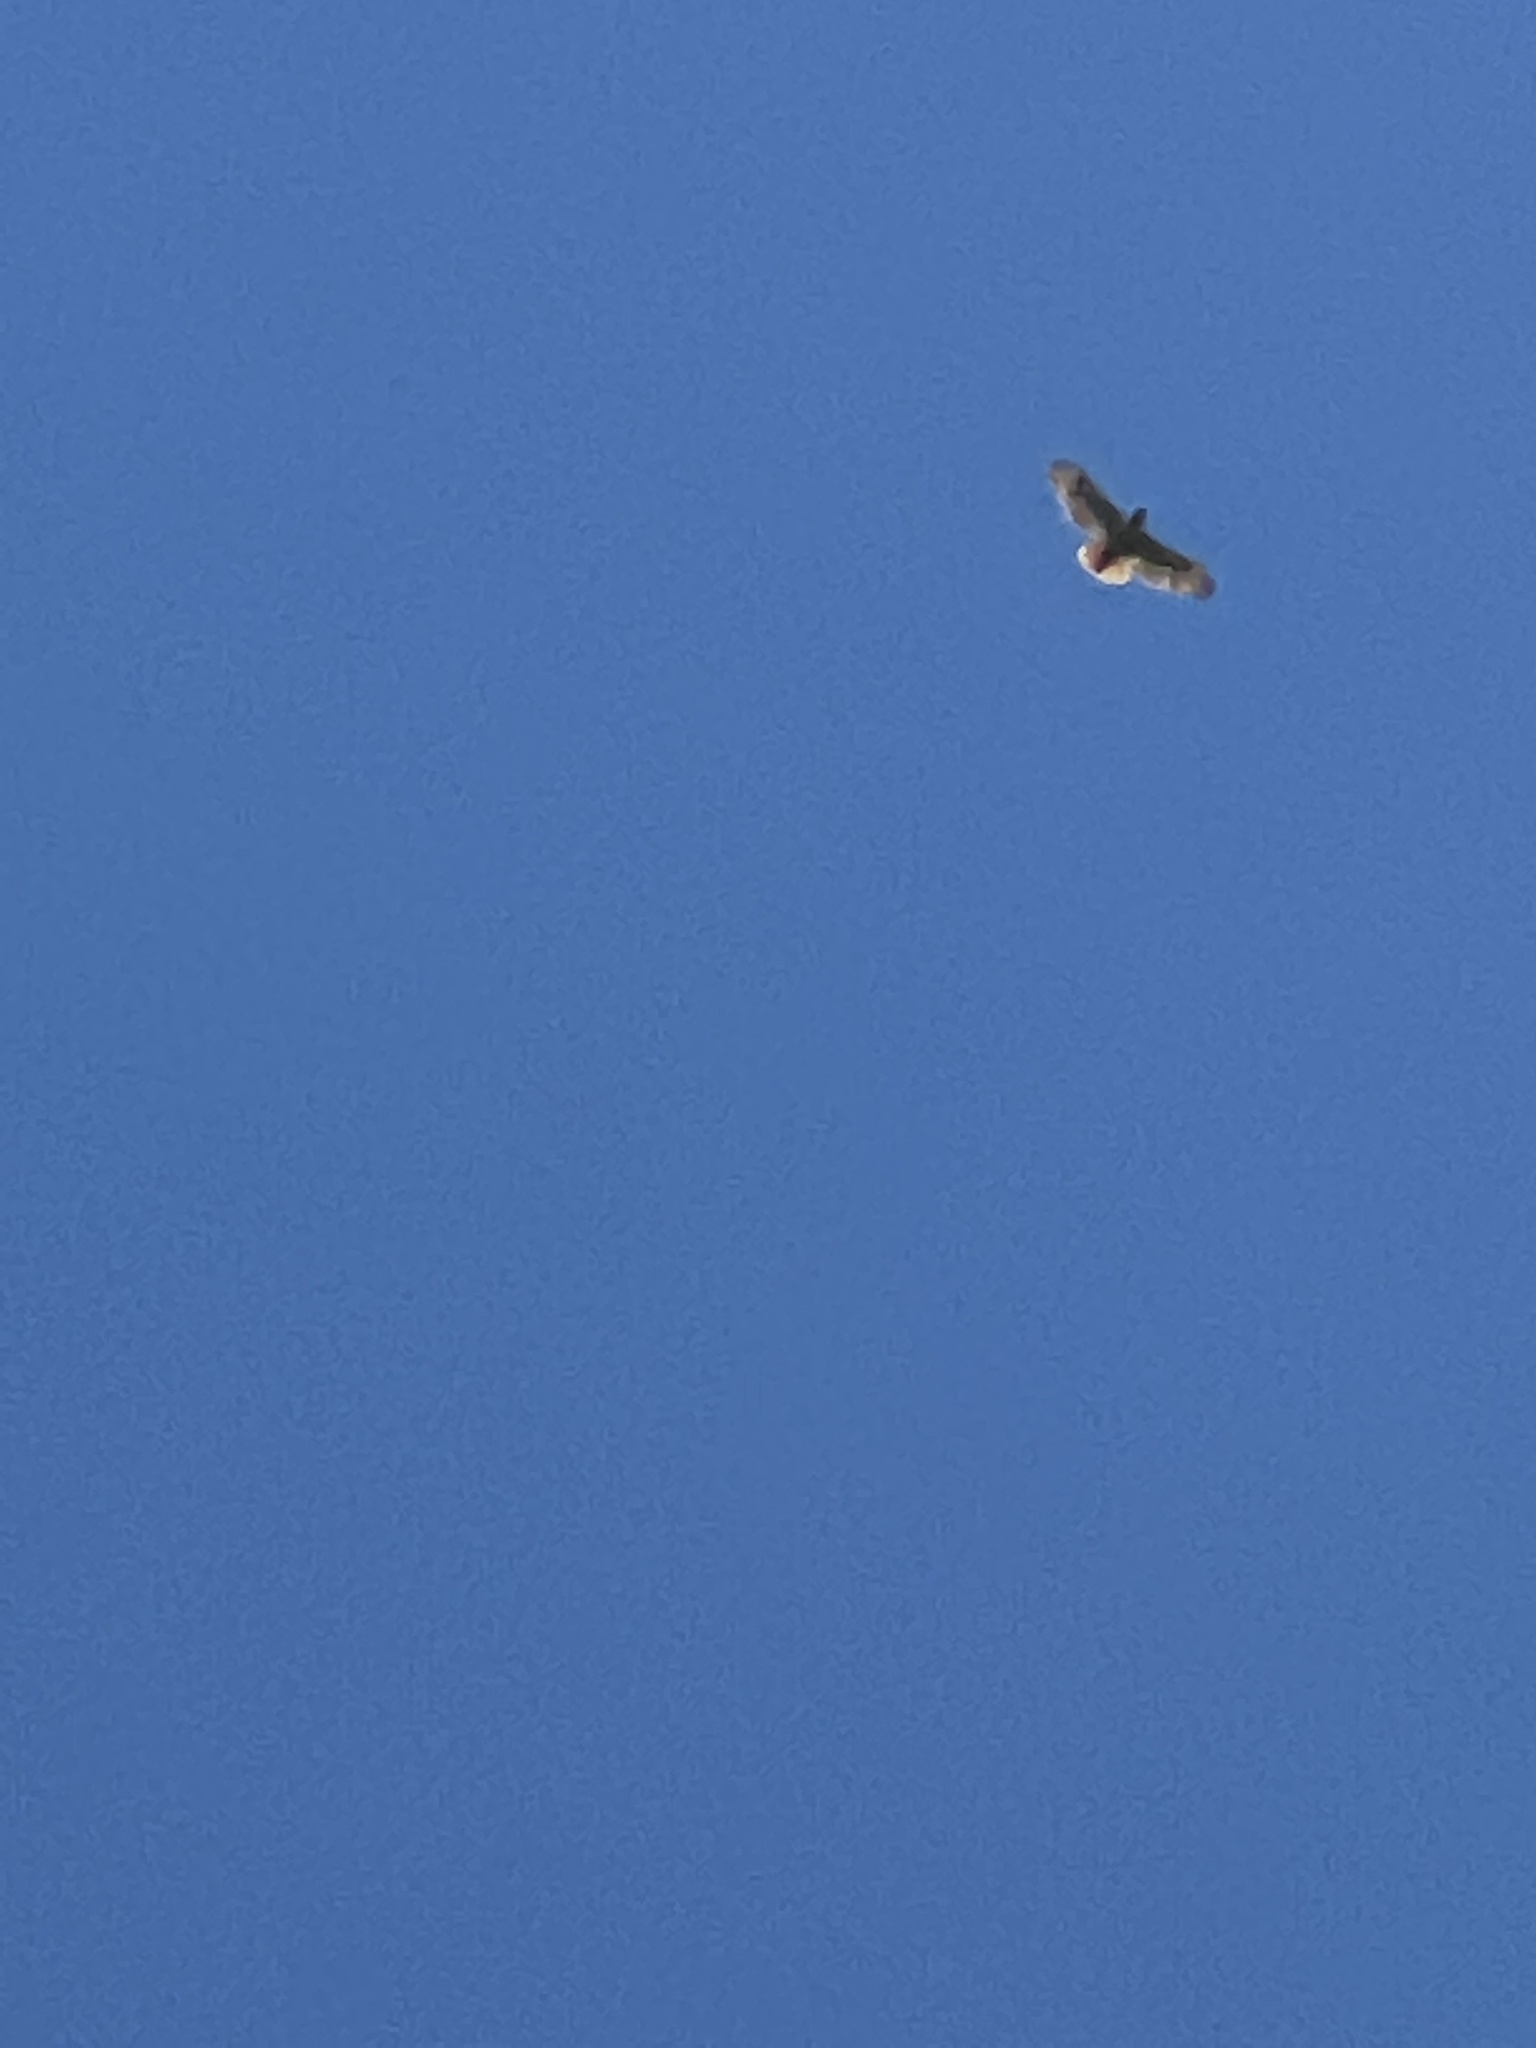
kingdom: Animalia
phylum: Chordata
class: Aves
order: Accipitriformes
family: Accipitridae
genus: Buteo
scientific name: Buteo jamaicensis
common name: Red-tailed hawk
